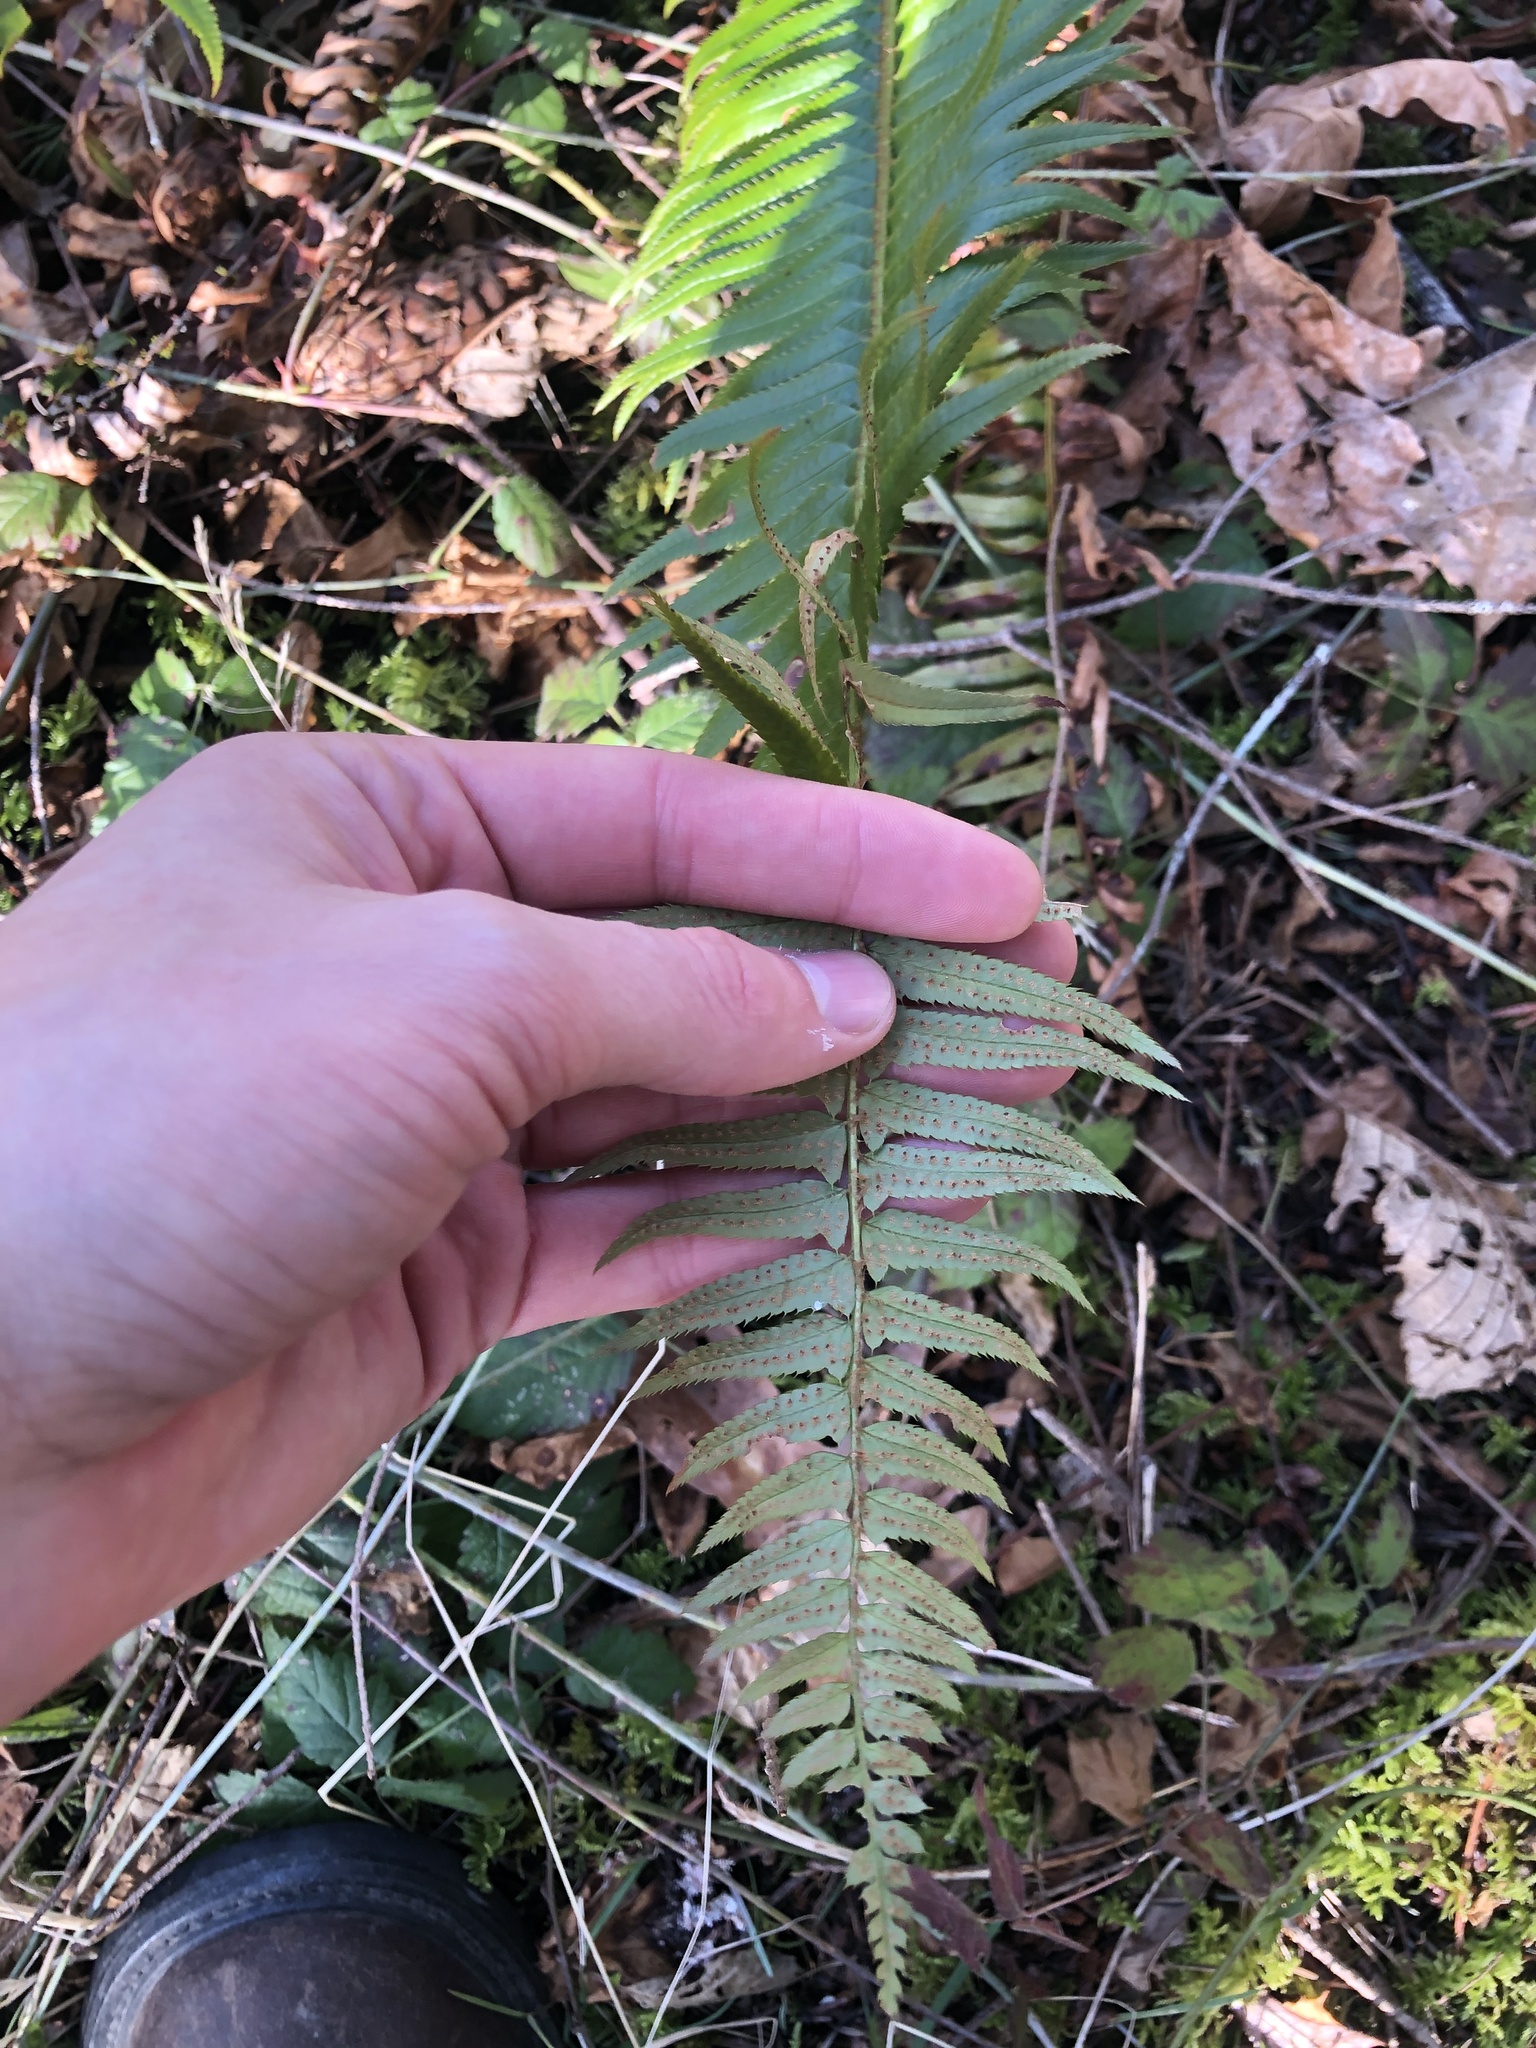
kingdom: Plantae
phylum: Tracheophyta
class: Polypodiopsida
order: Polypodiales
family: Dryopteridaceae
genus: Polystichum
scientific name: Polystichum munitum
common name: Western sword-fern
